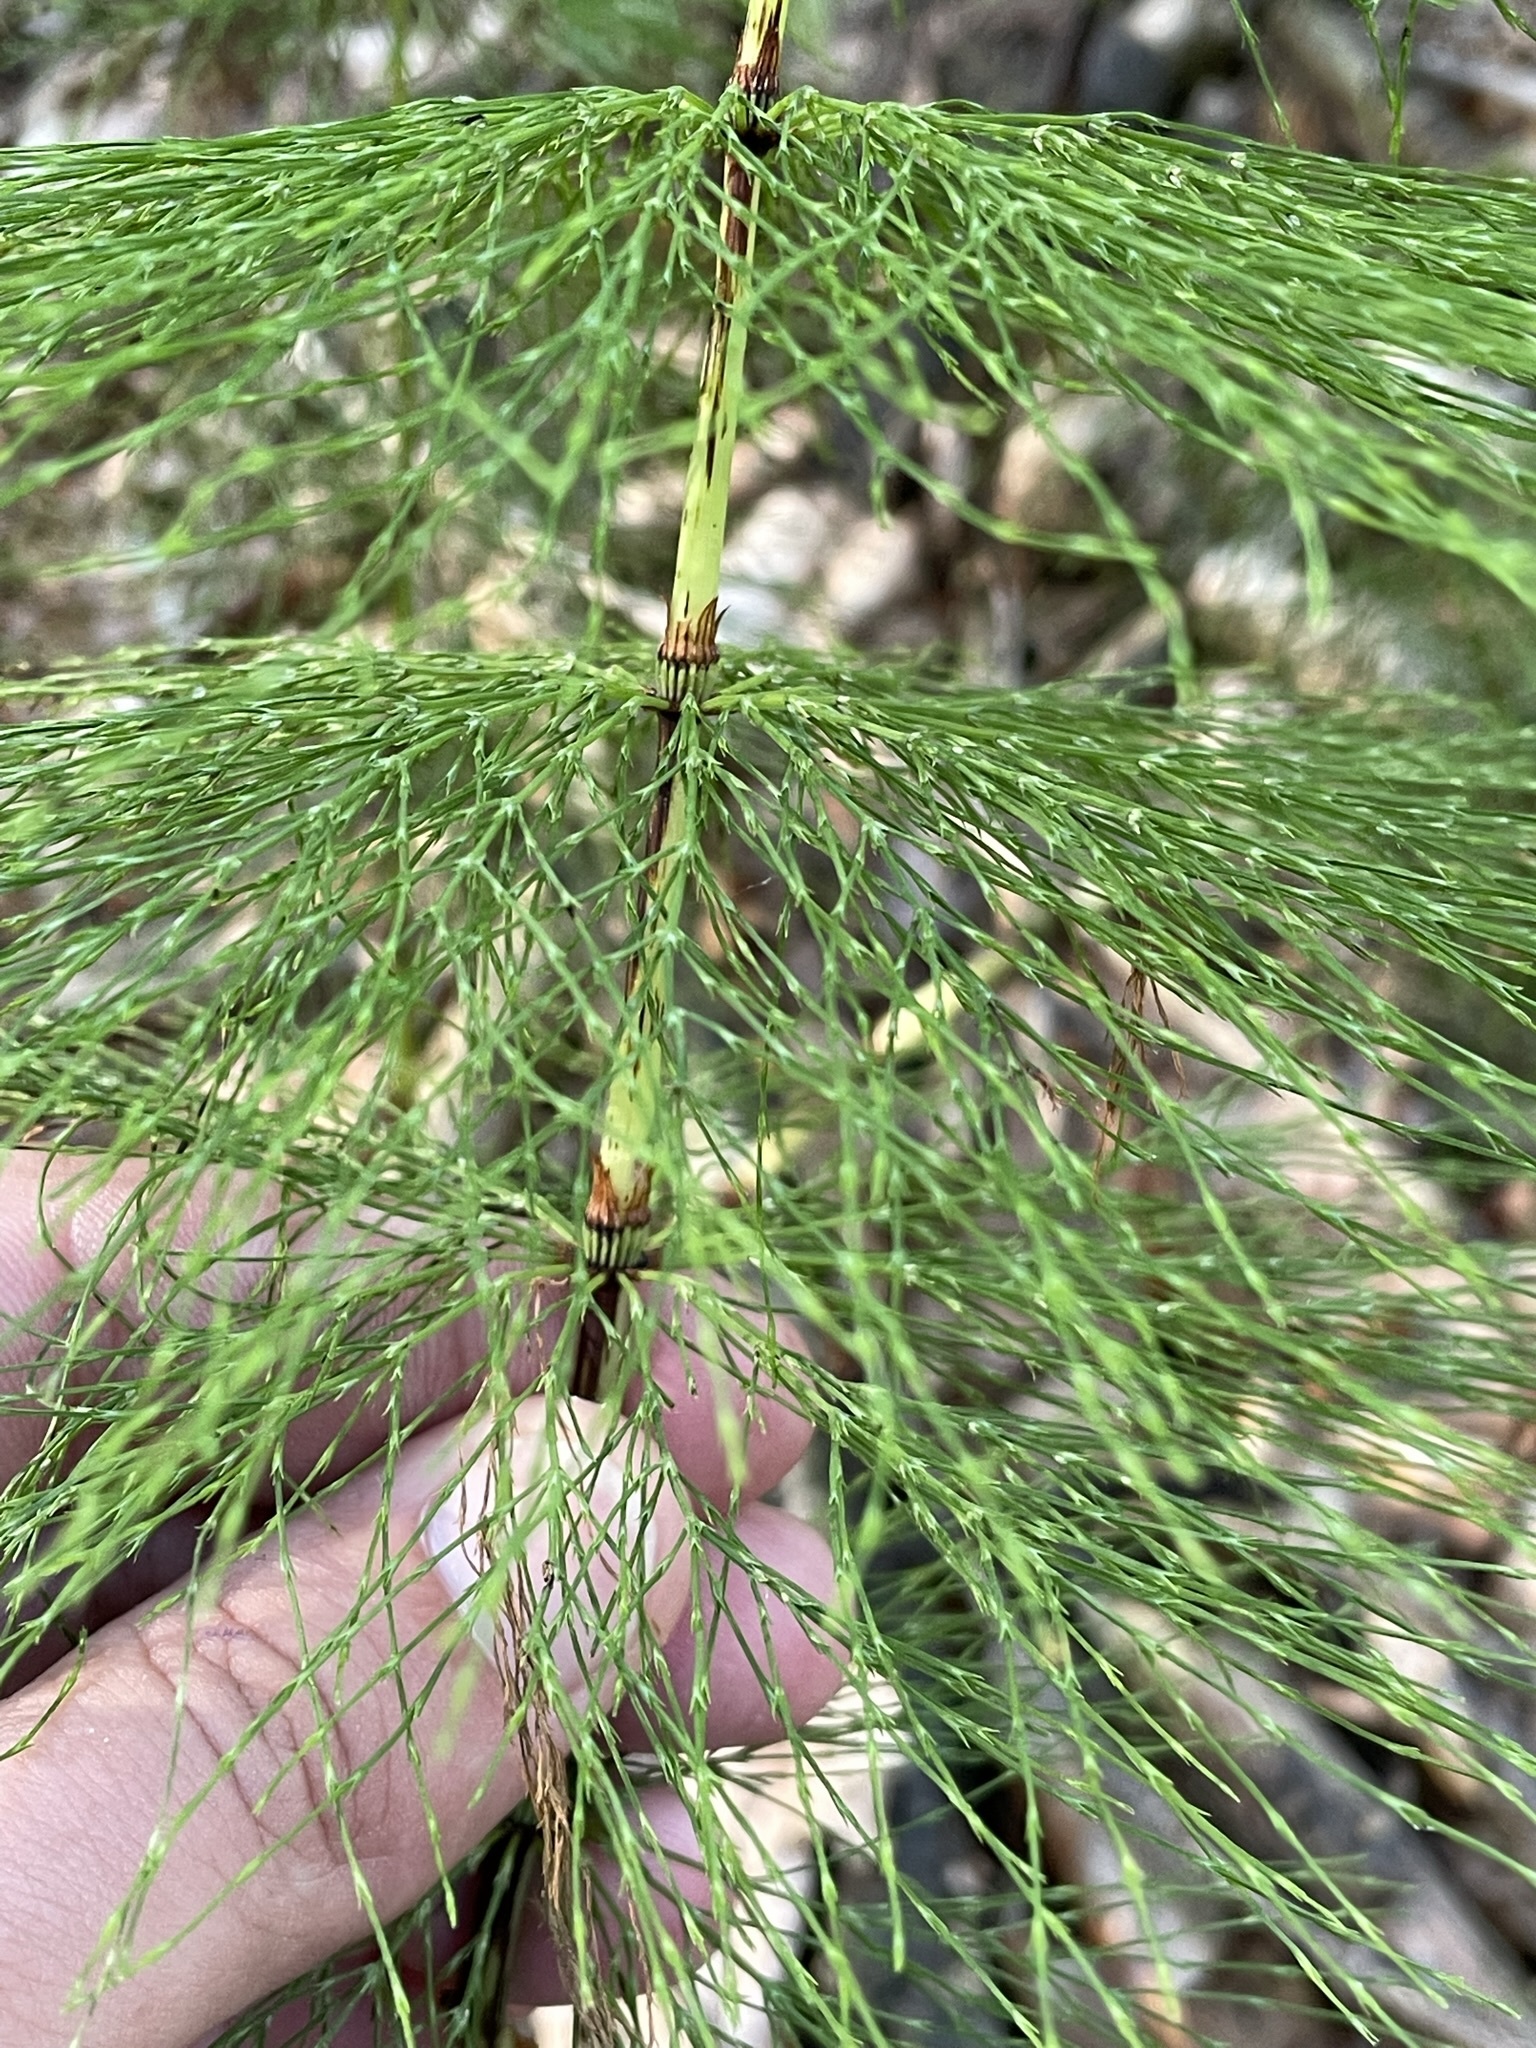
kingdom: Plantae
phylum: Tracheophyta
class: Polypodiopsida
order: Equisetales
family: Equisetaceae
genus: Equisetum
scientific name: Equisetum sylvaticum
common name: Wood horsetail
